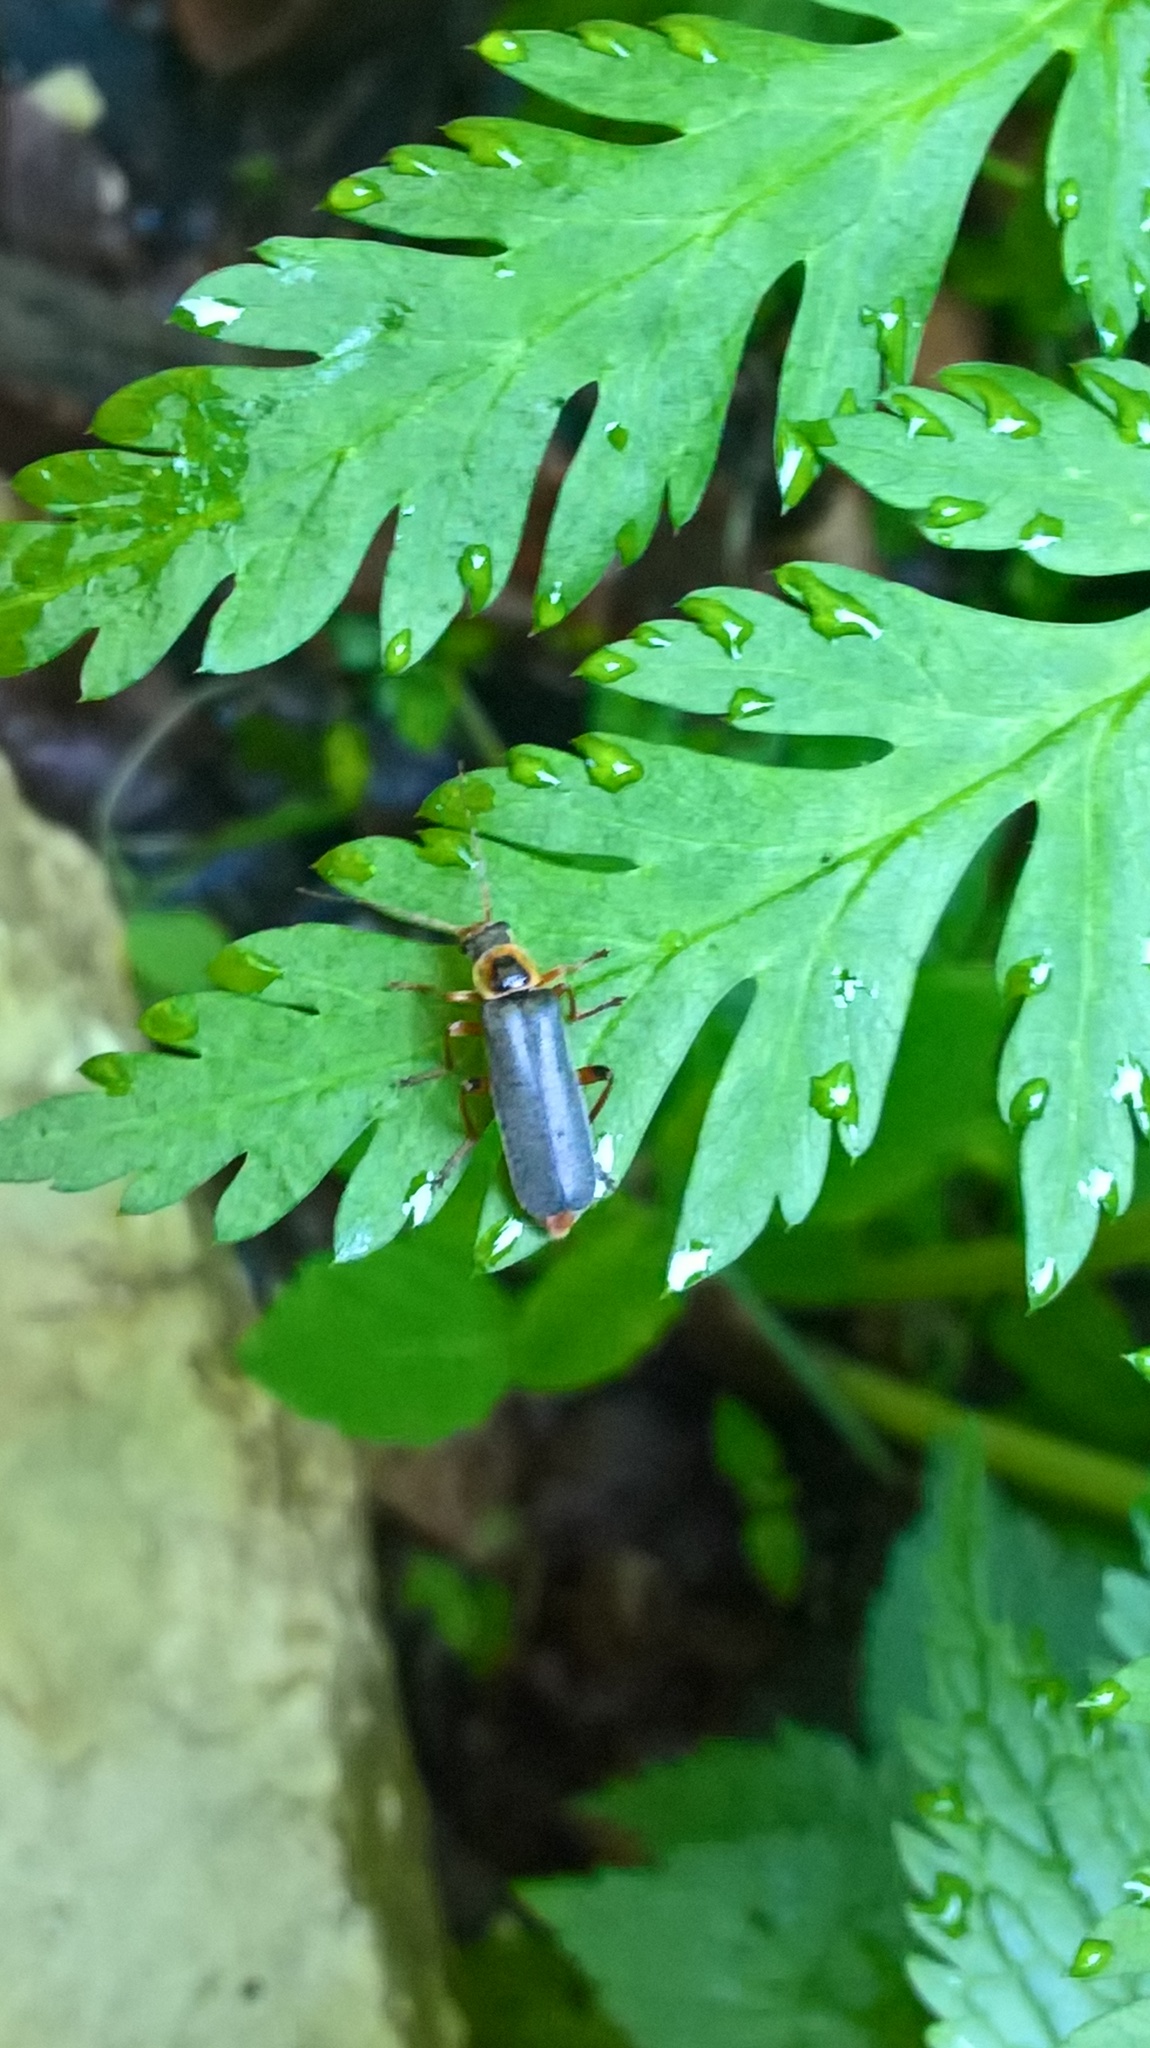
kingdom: Animalia
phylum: Arthropoda
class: Insecta
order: Coleoptera
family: Cantharidae
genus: Cantharis
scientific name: Cantharis nigricans
